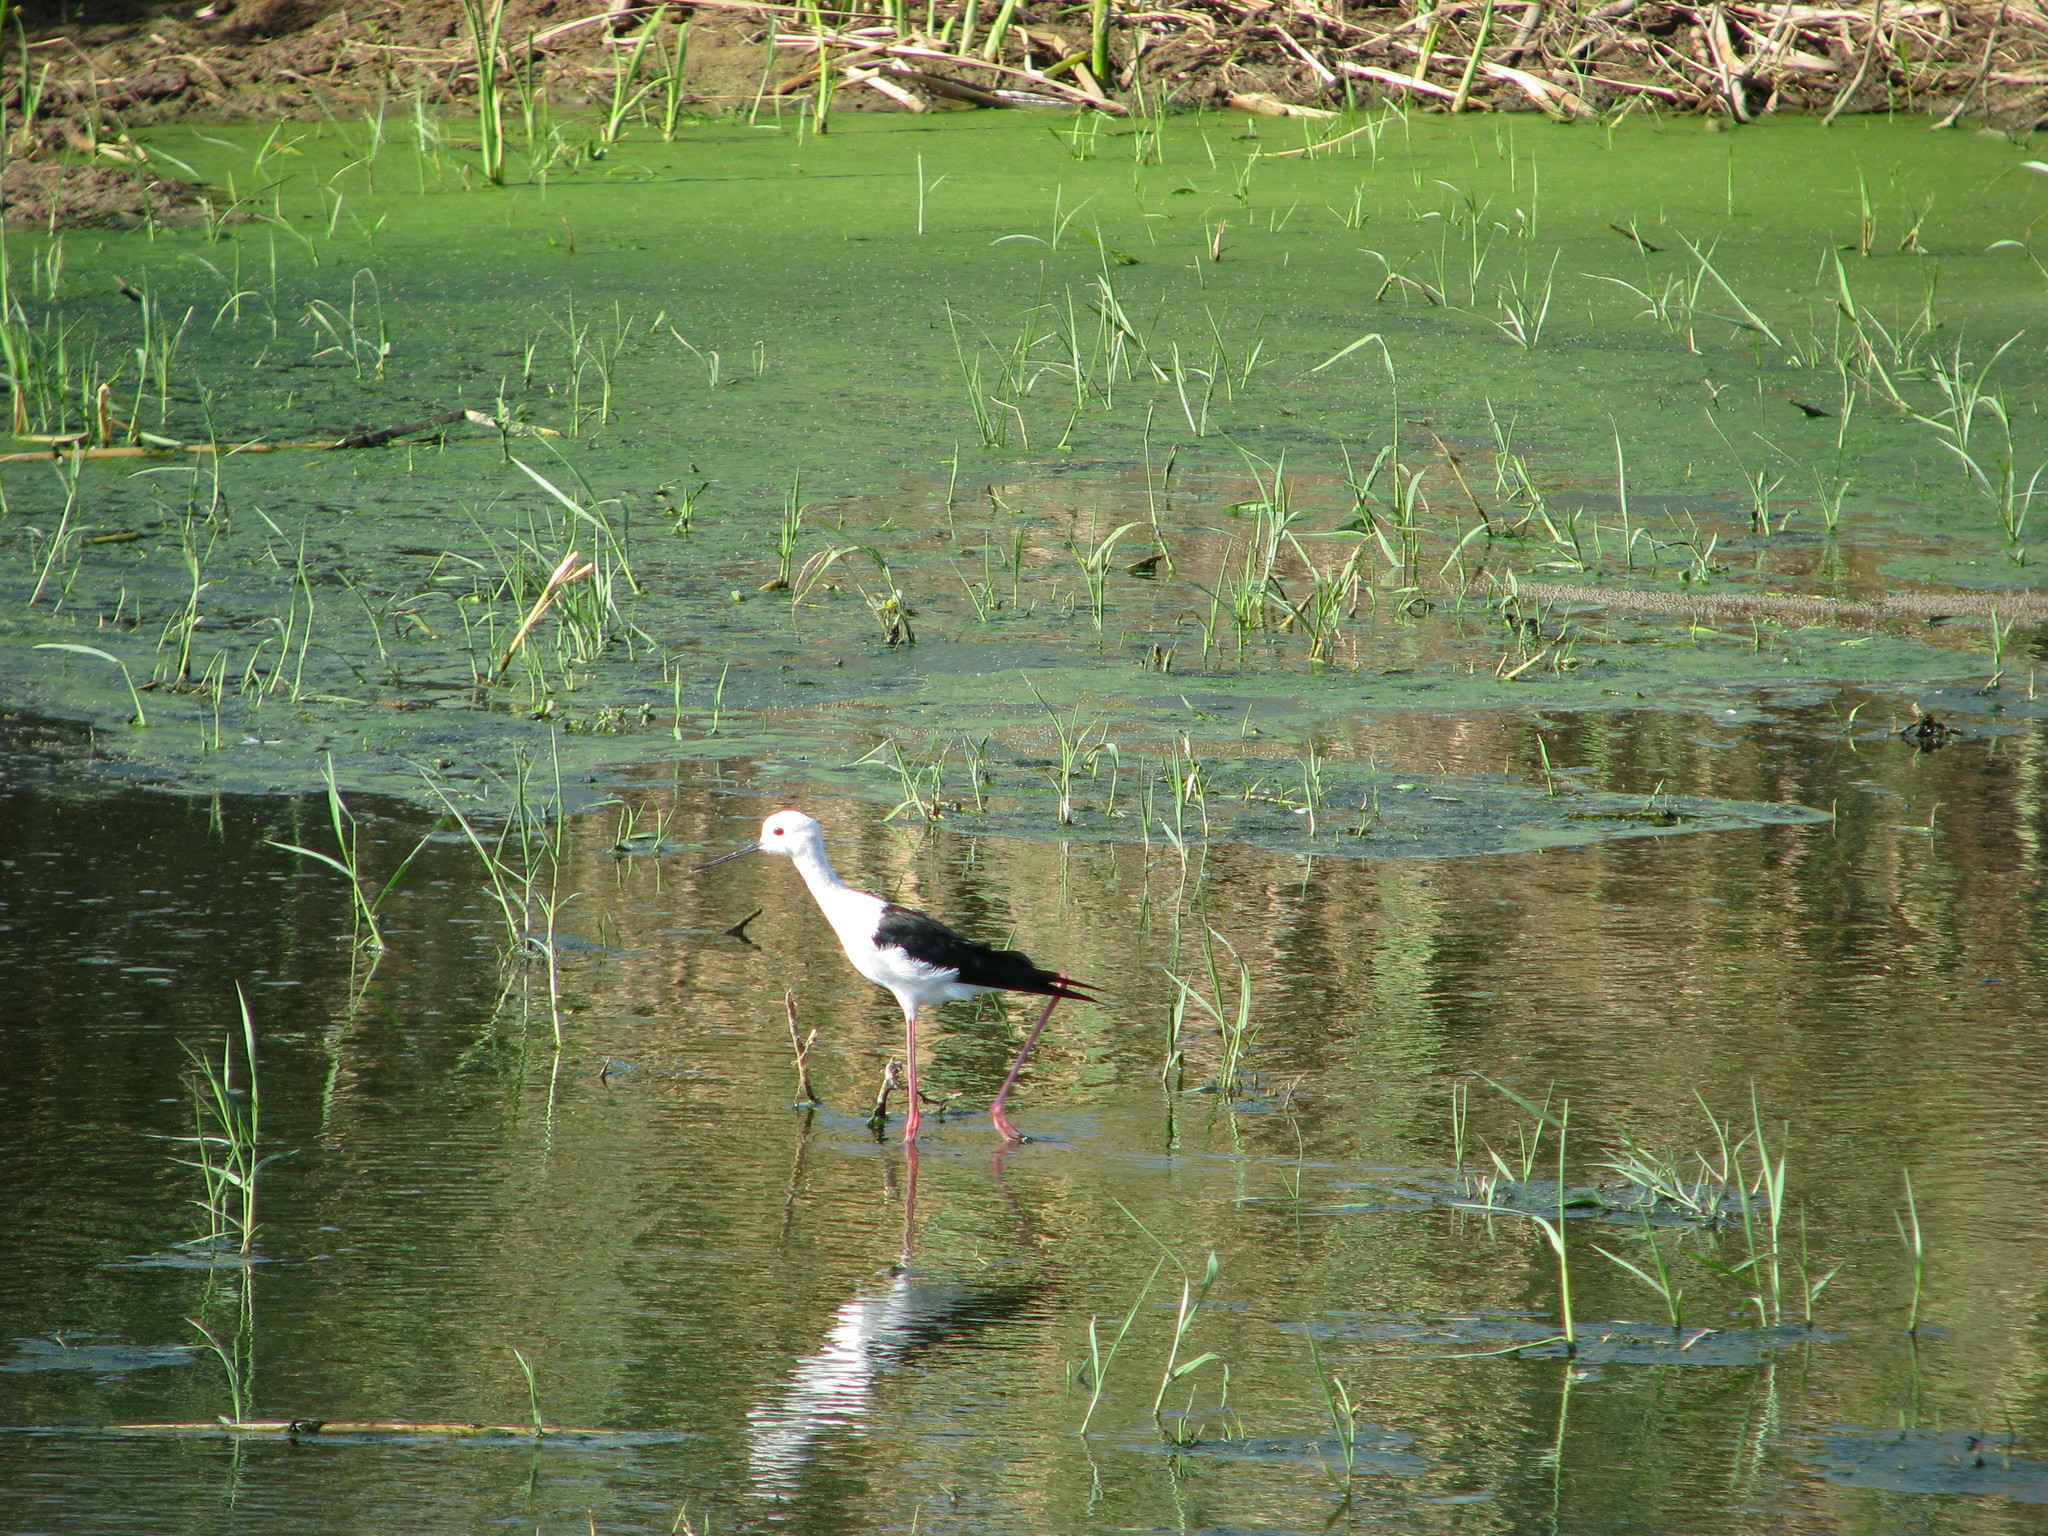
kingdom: Animalia
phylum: Chordata
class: Aves
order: Charadriiformes
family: Recurvirostridae
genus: Himantopus
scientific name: Himantopus himantopus
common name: Black-winged stilt
